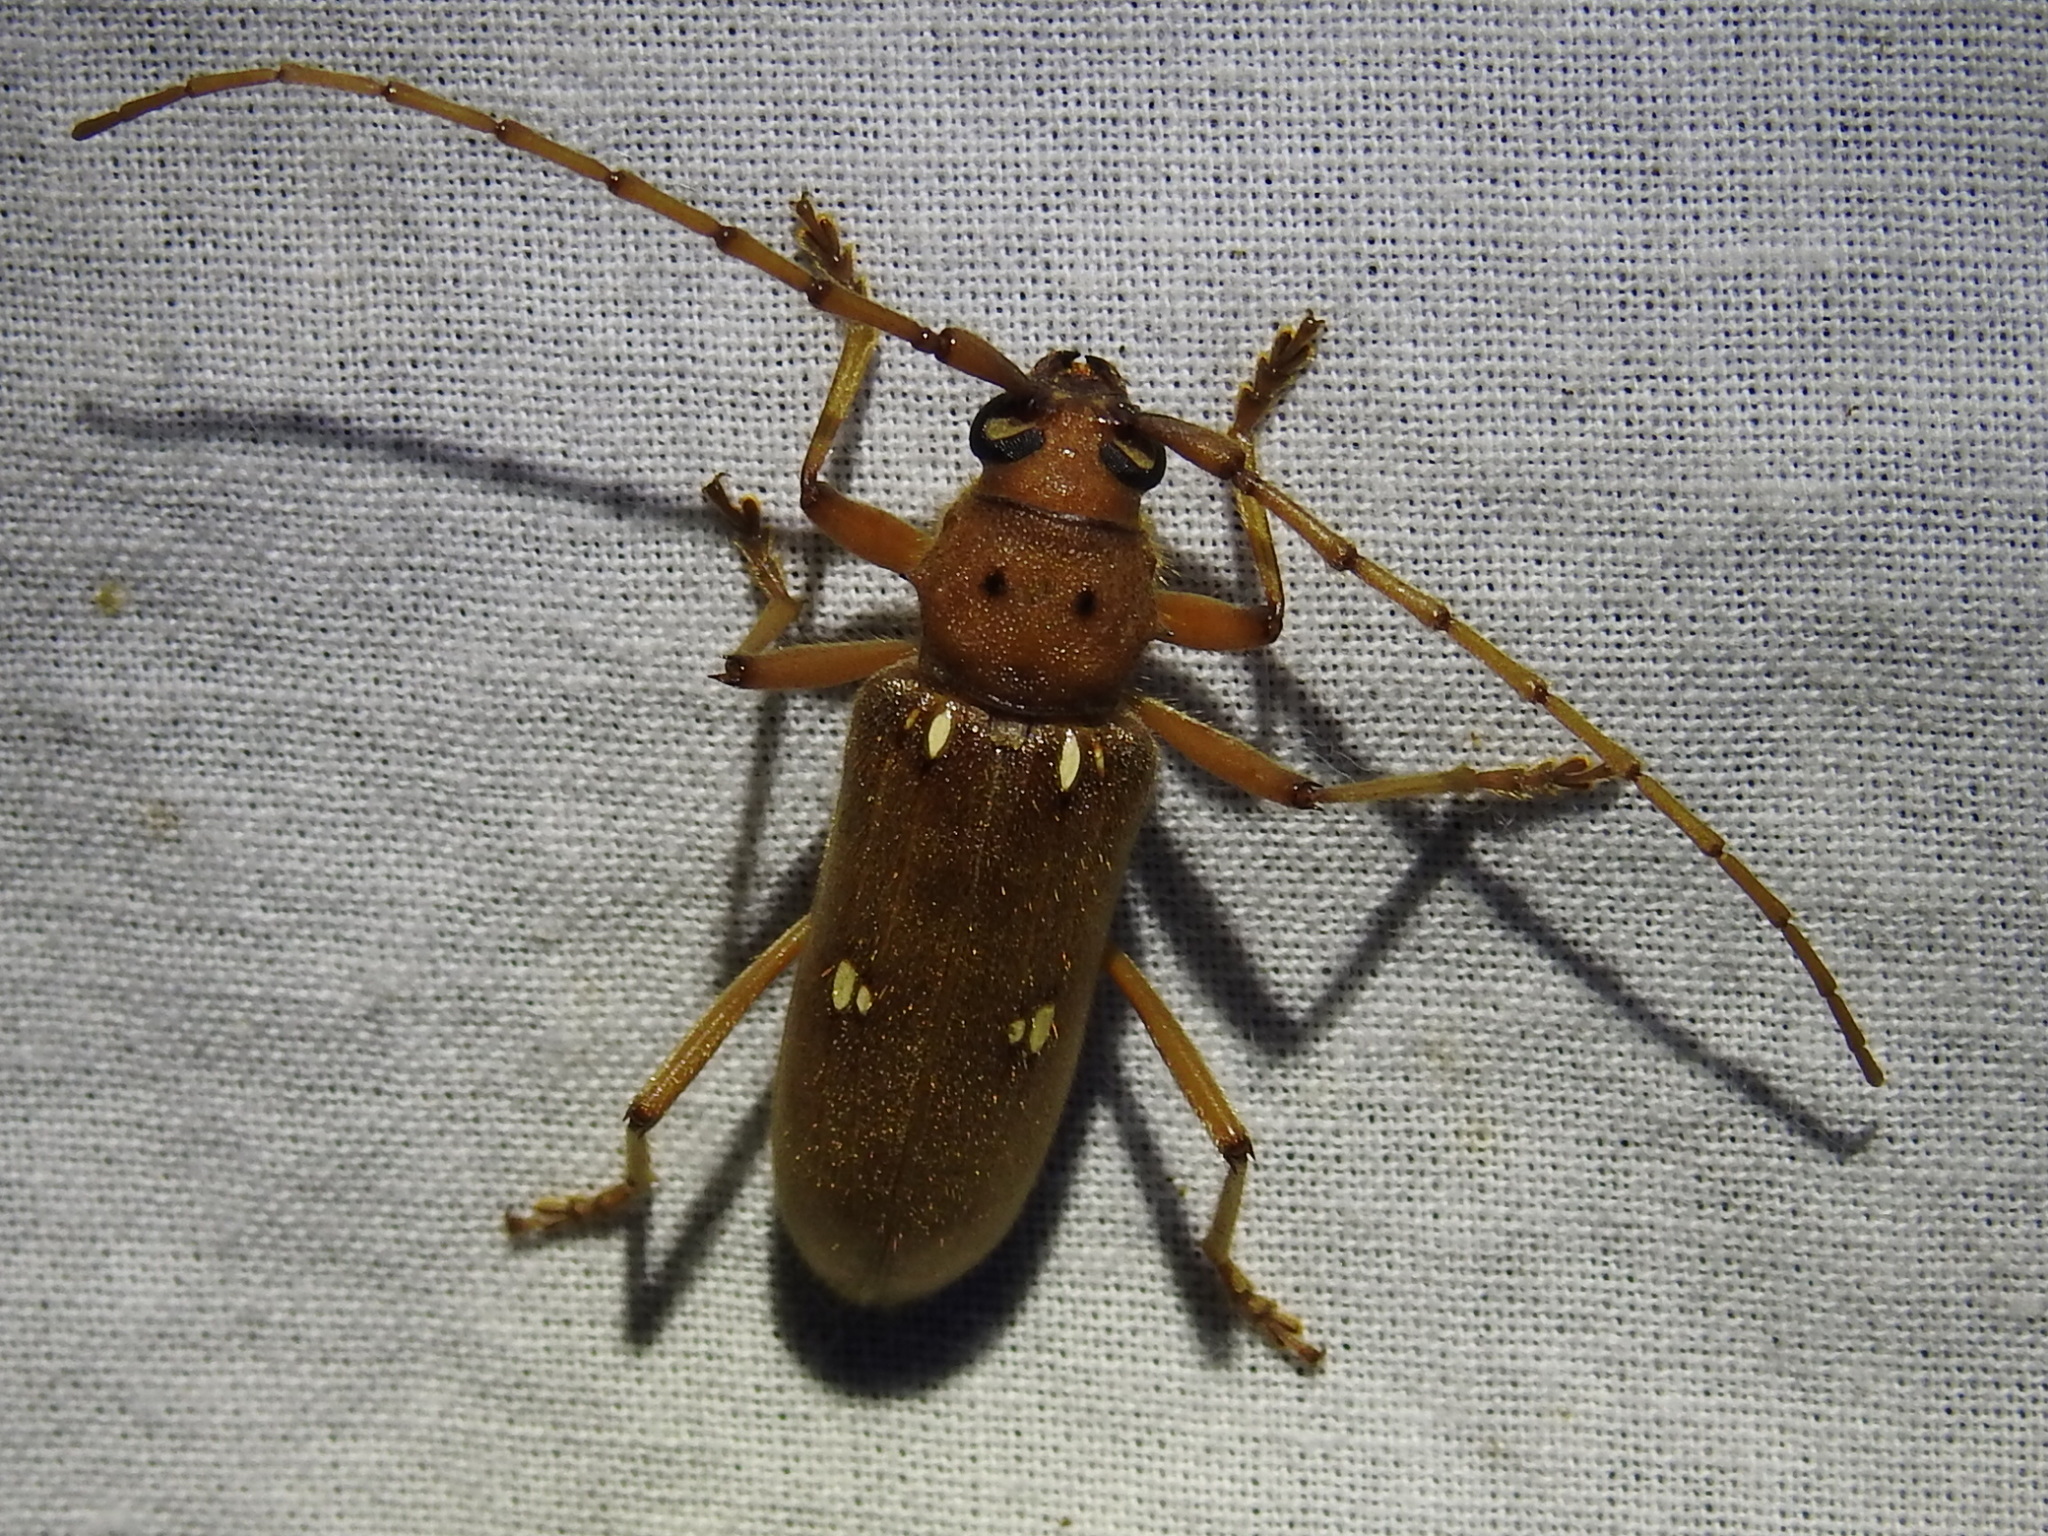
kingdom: Animalia
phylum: Arthropoda
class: Insecta
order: Coleoptera
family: Cerambycidae
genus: Eburia
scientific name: Eburia haldemani
